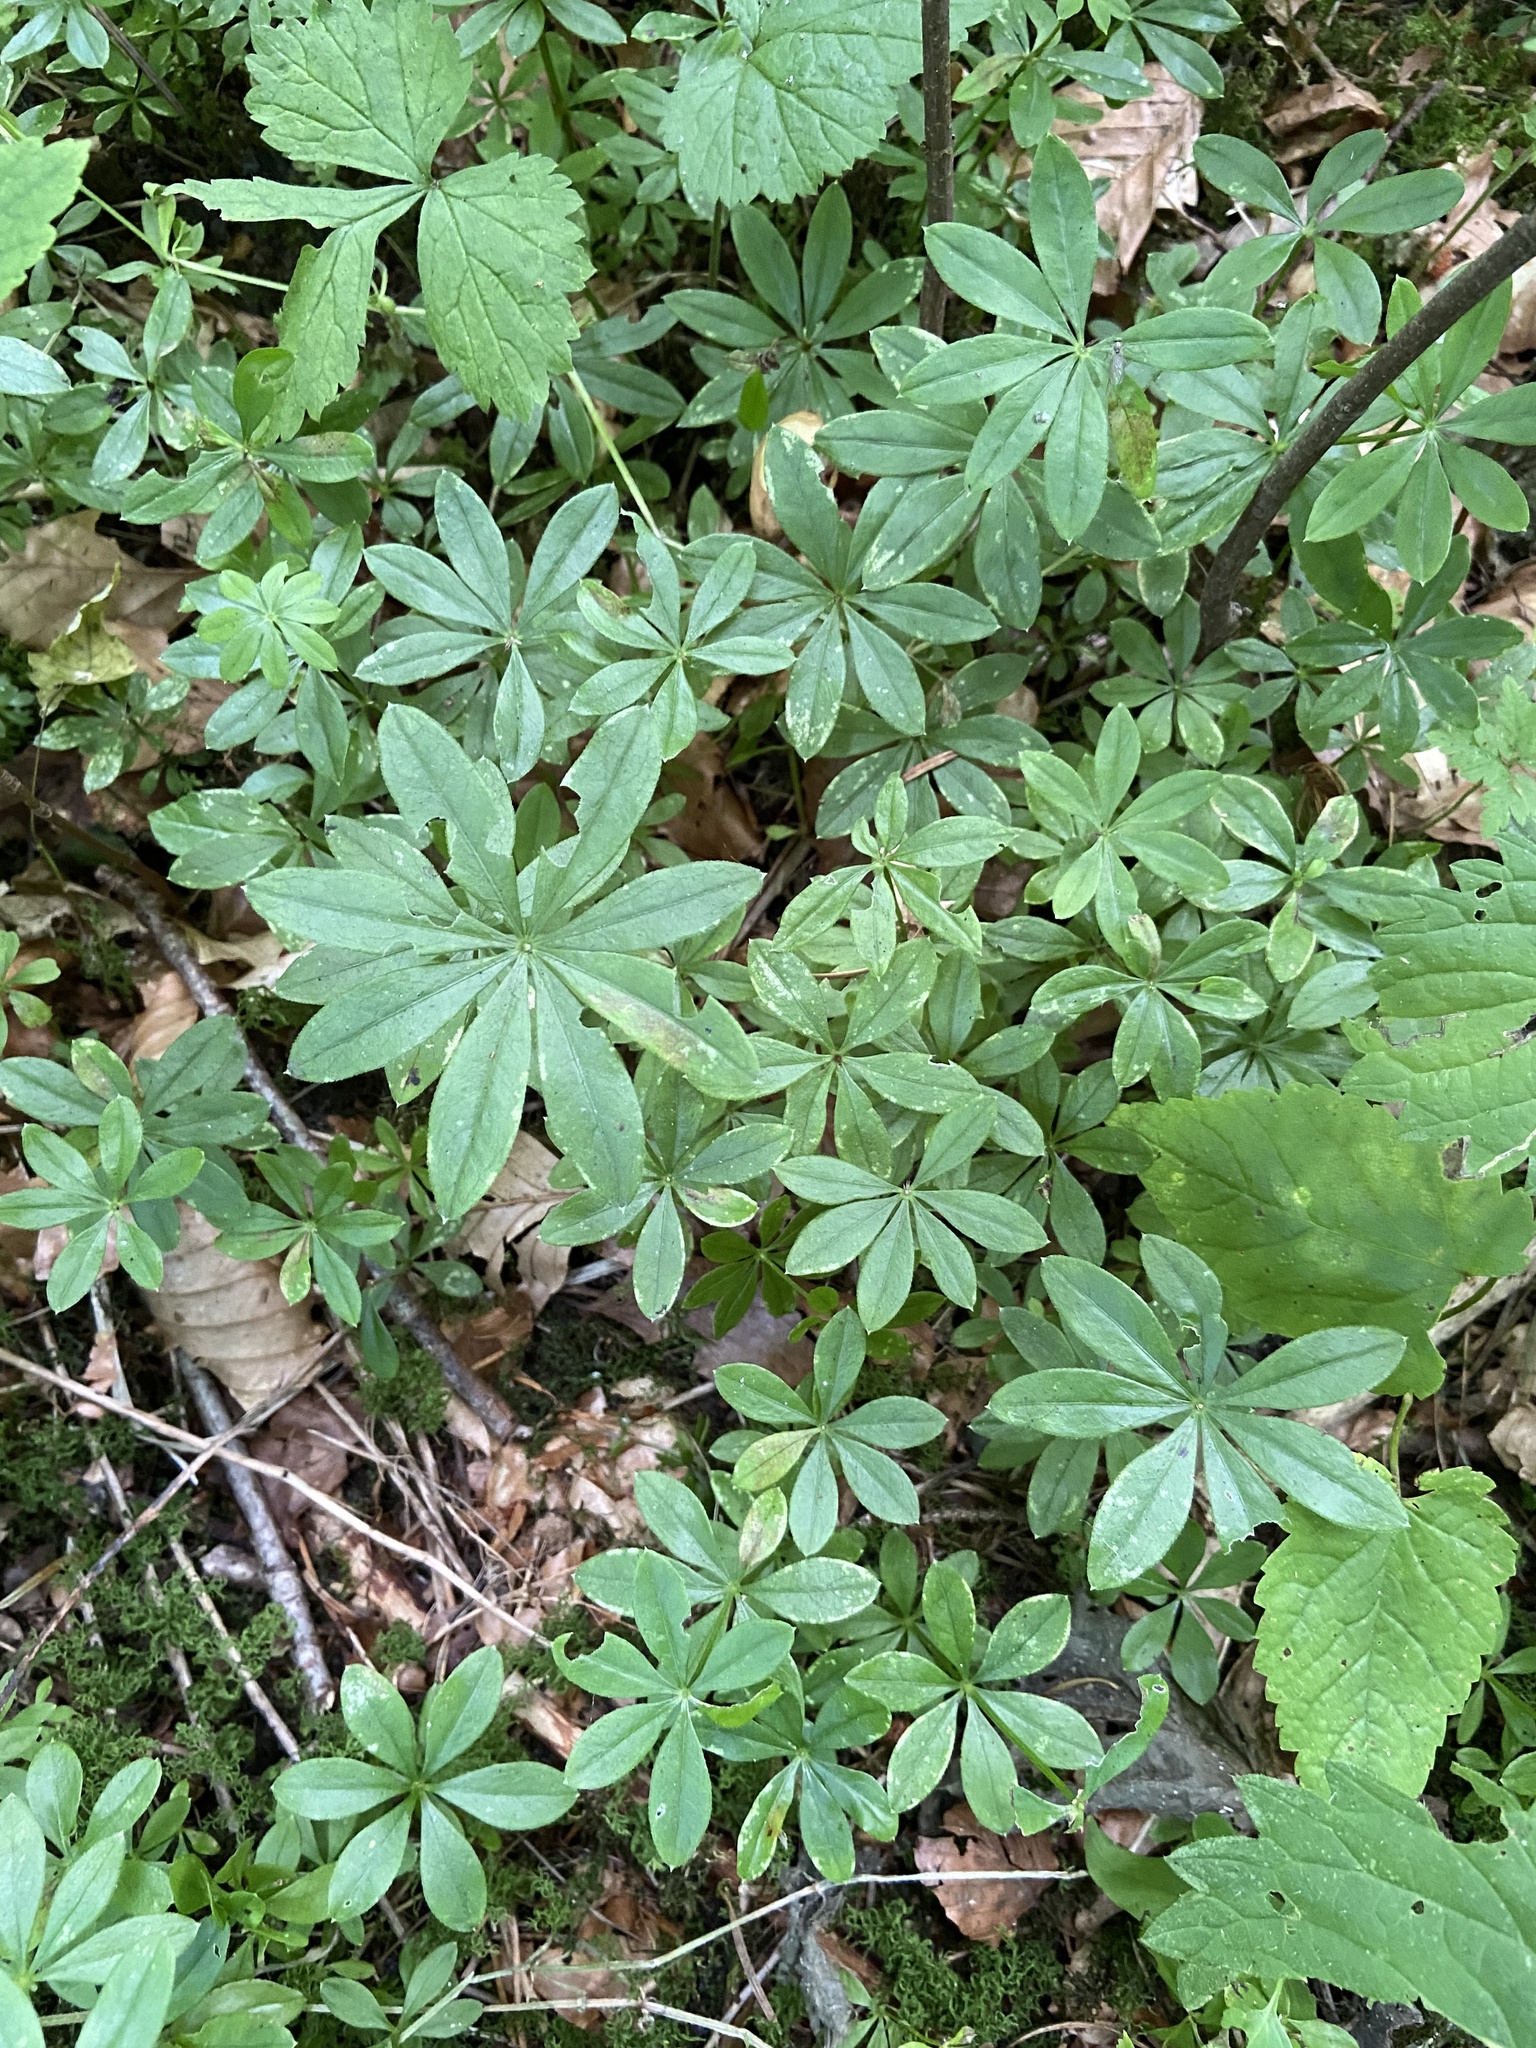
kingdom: Plantae
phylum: Tracheophyta
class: Magnoliopsida
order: Gentianales
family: Rubiaceae
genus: Galium
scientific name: Galium odoratum
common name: Sweet woodruff
